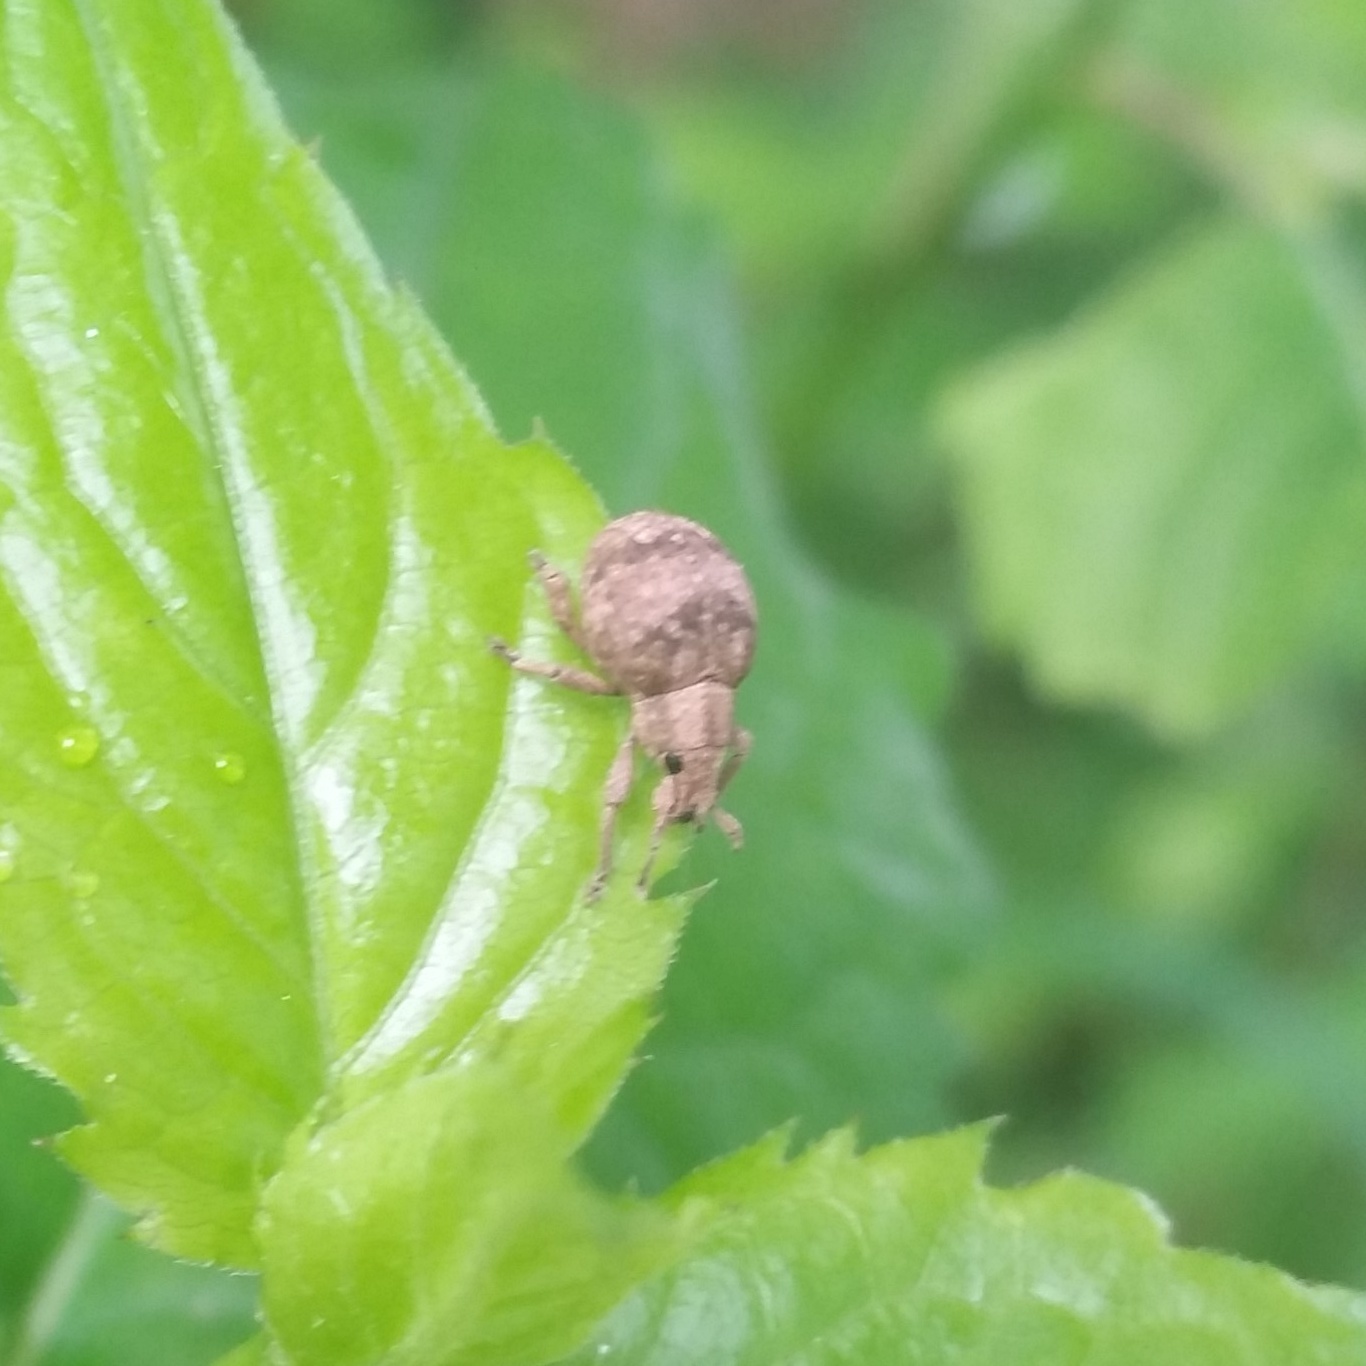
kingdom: Animalia
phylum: Arthropoda
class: Insecta
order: Coleoptera
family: Curculionidae
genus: Pseudocneorhinus
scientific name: Pseudocneorhinus bifasciatus
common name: Two-banded japanese weevil
